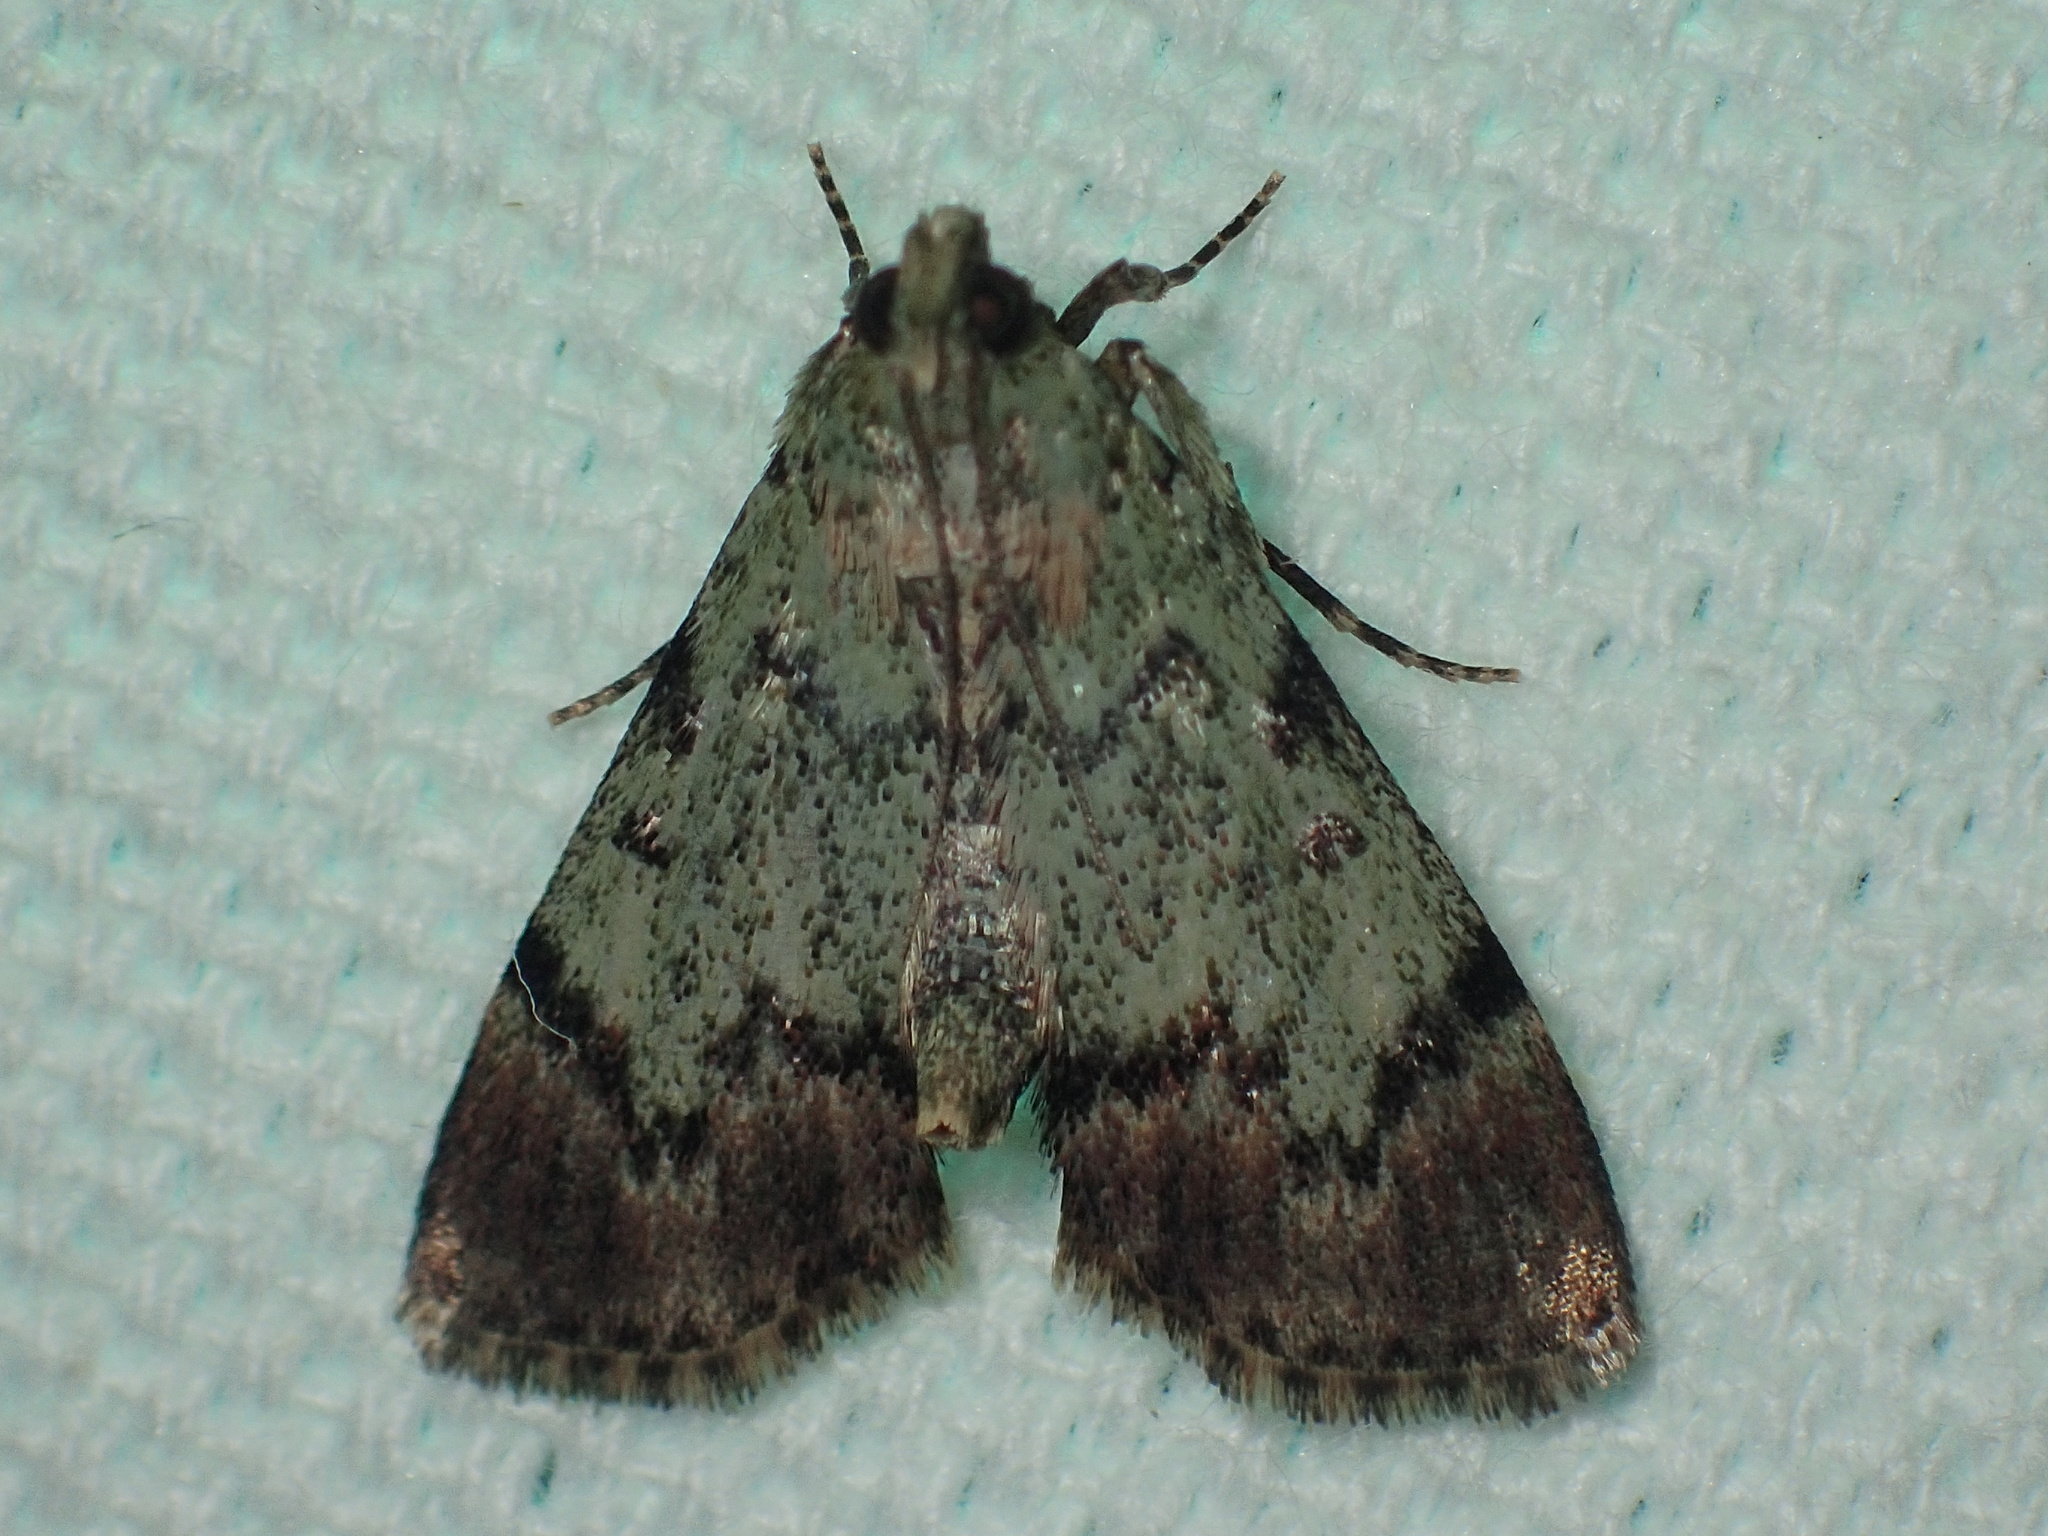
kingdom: Animalia
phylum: Arthropoda
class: Insecta
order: Lepidoptera
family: Pyralidae
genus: Epipaschia
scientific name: Epipaschia superatalis
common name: Dimorphic macalla moth
